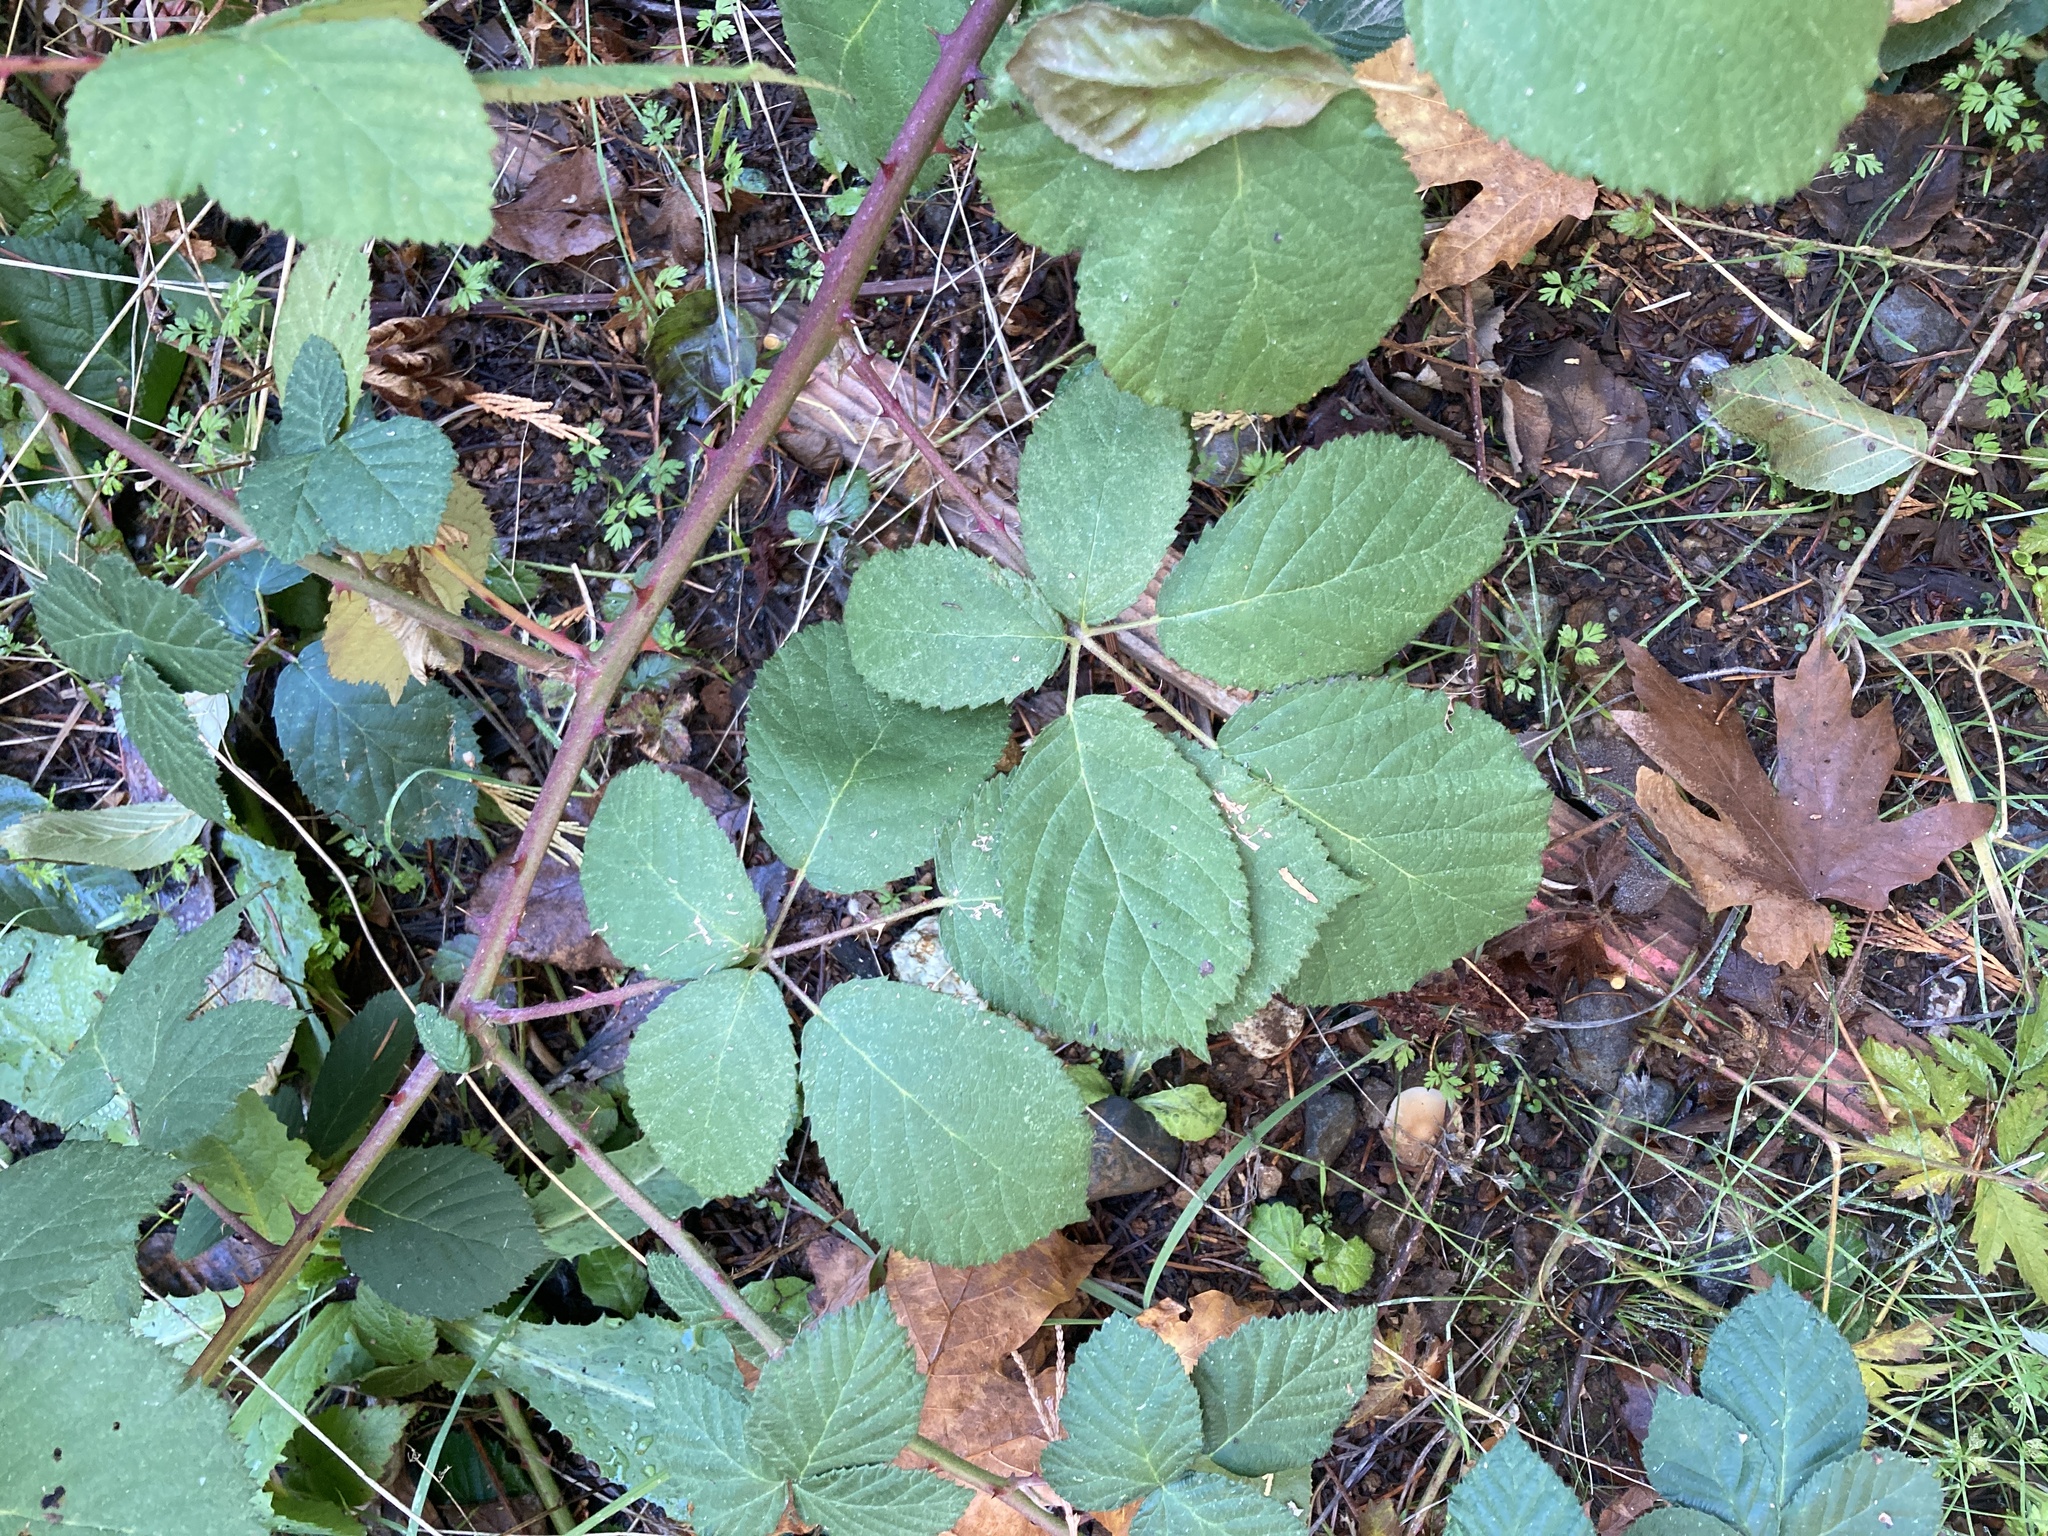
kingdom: Plantae
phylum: Tracheophyta
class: Magnoliopsida
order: Rosales
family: Rosaceae
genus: Rubus
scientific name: Rubus armeniacus
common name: Himalayan blackberry
